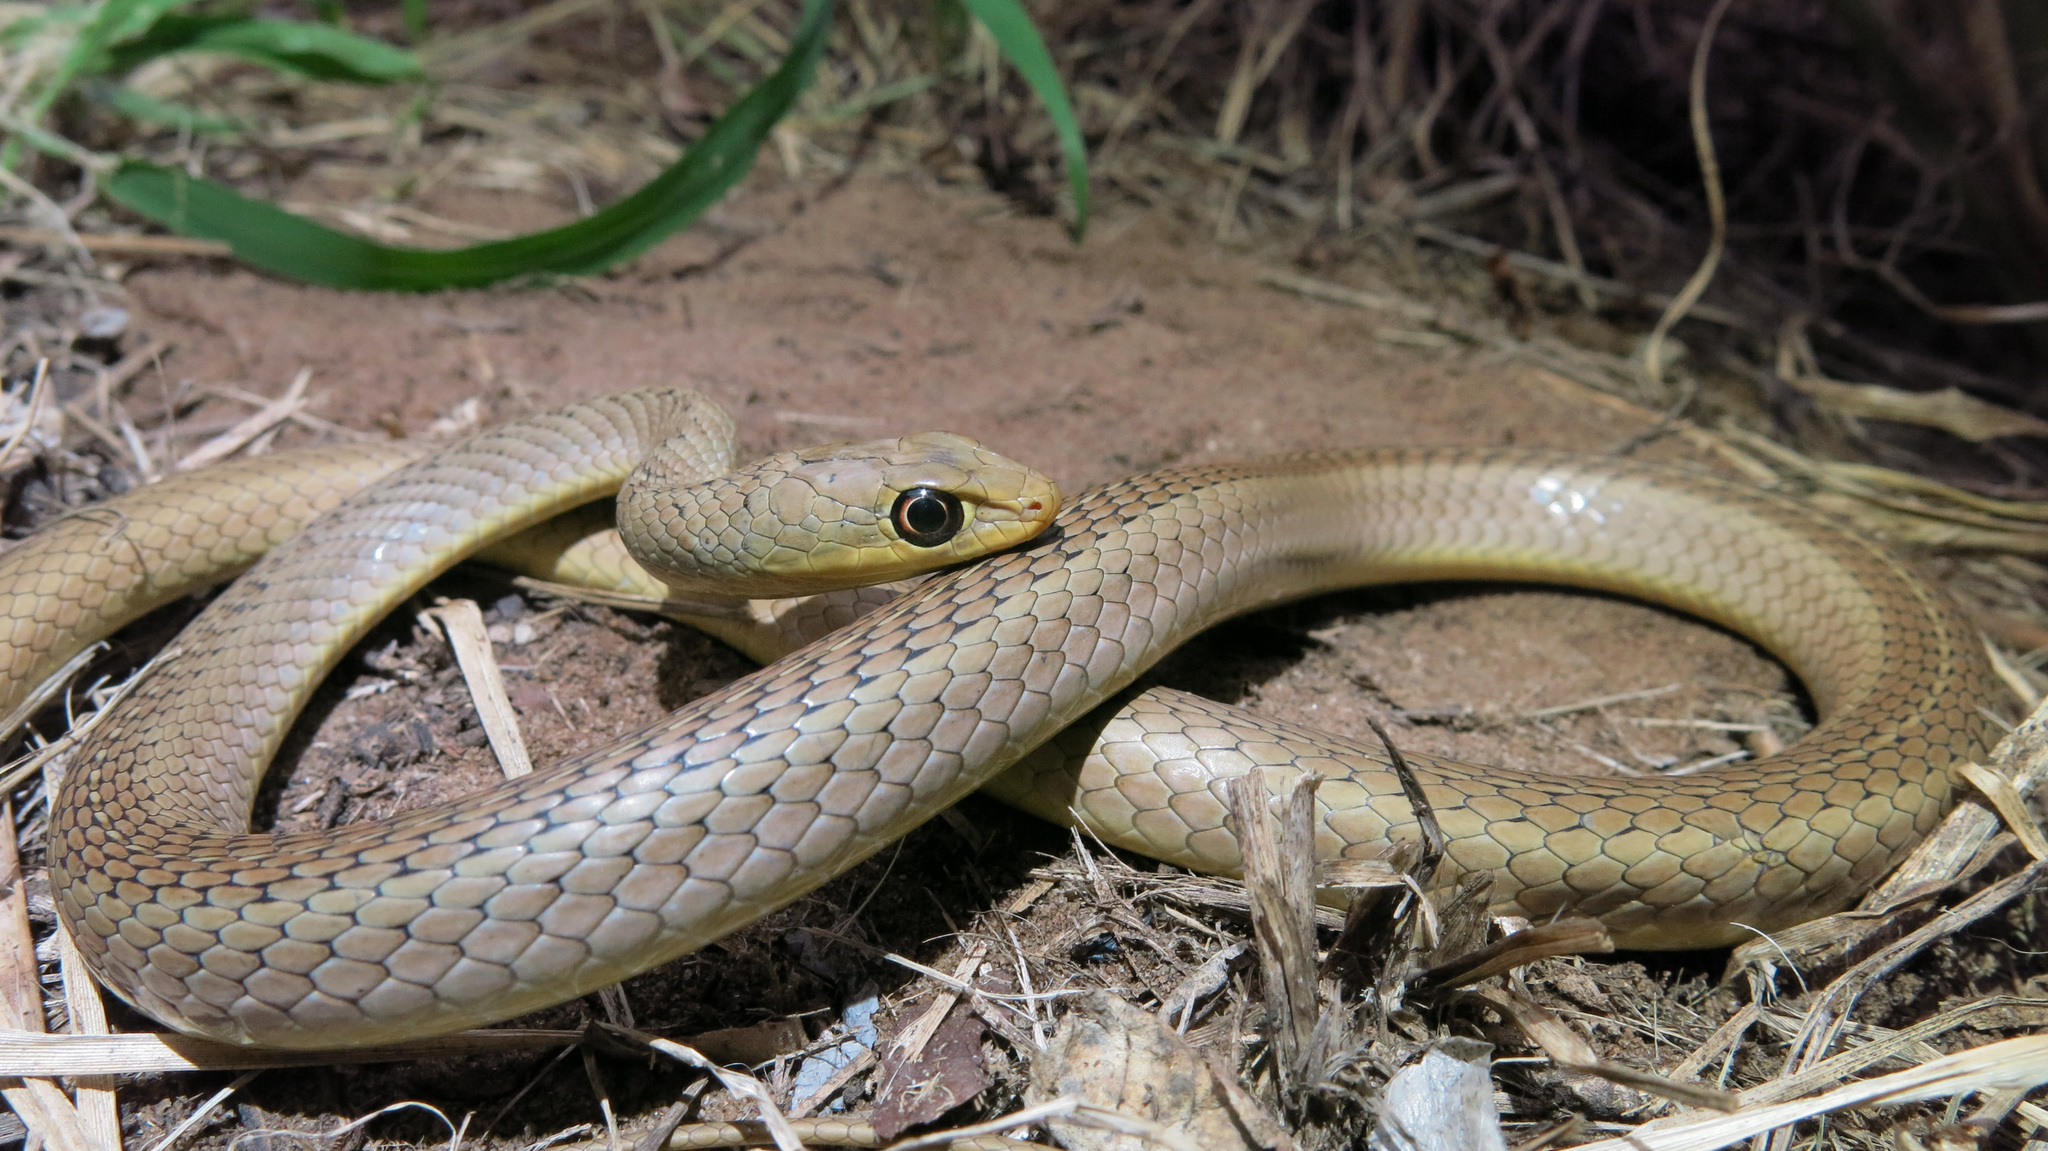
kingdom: Animalia
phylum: Chordata
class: Squamata
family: Psammophiidae
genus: Psammophis
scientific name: Psammophis brevirostris
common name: Short-snouted grass snake
